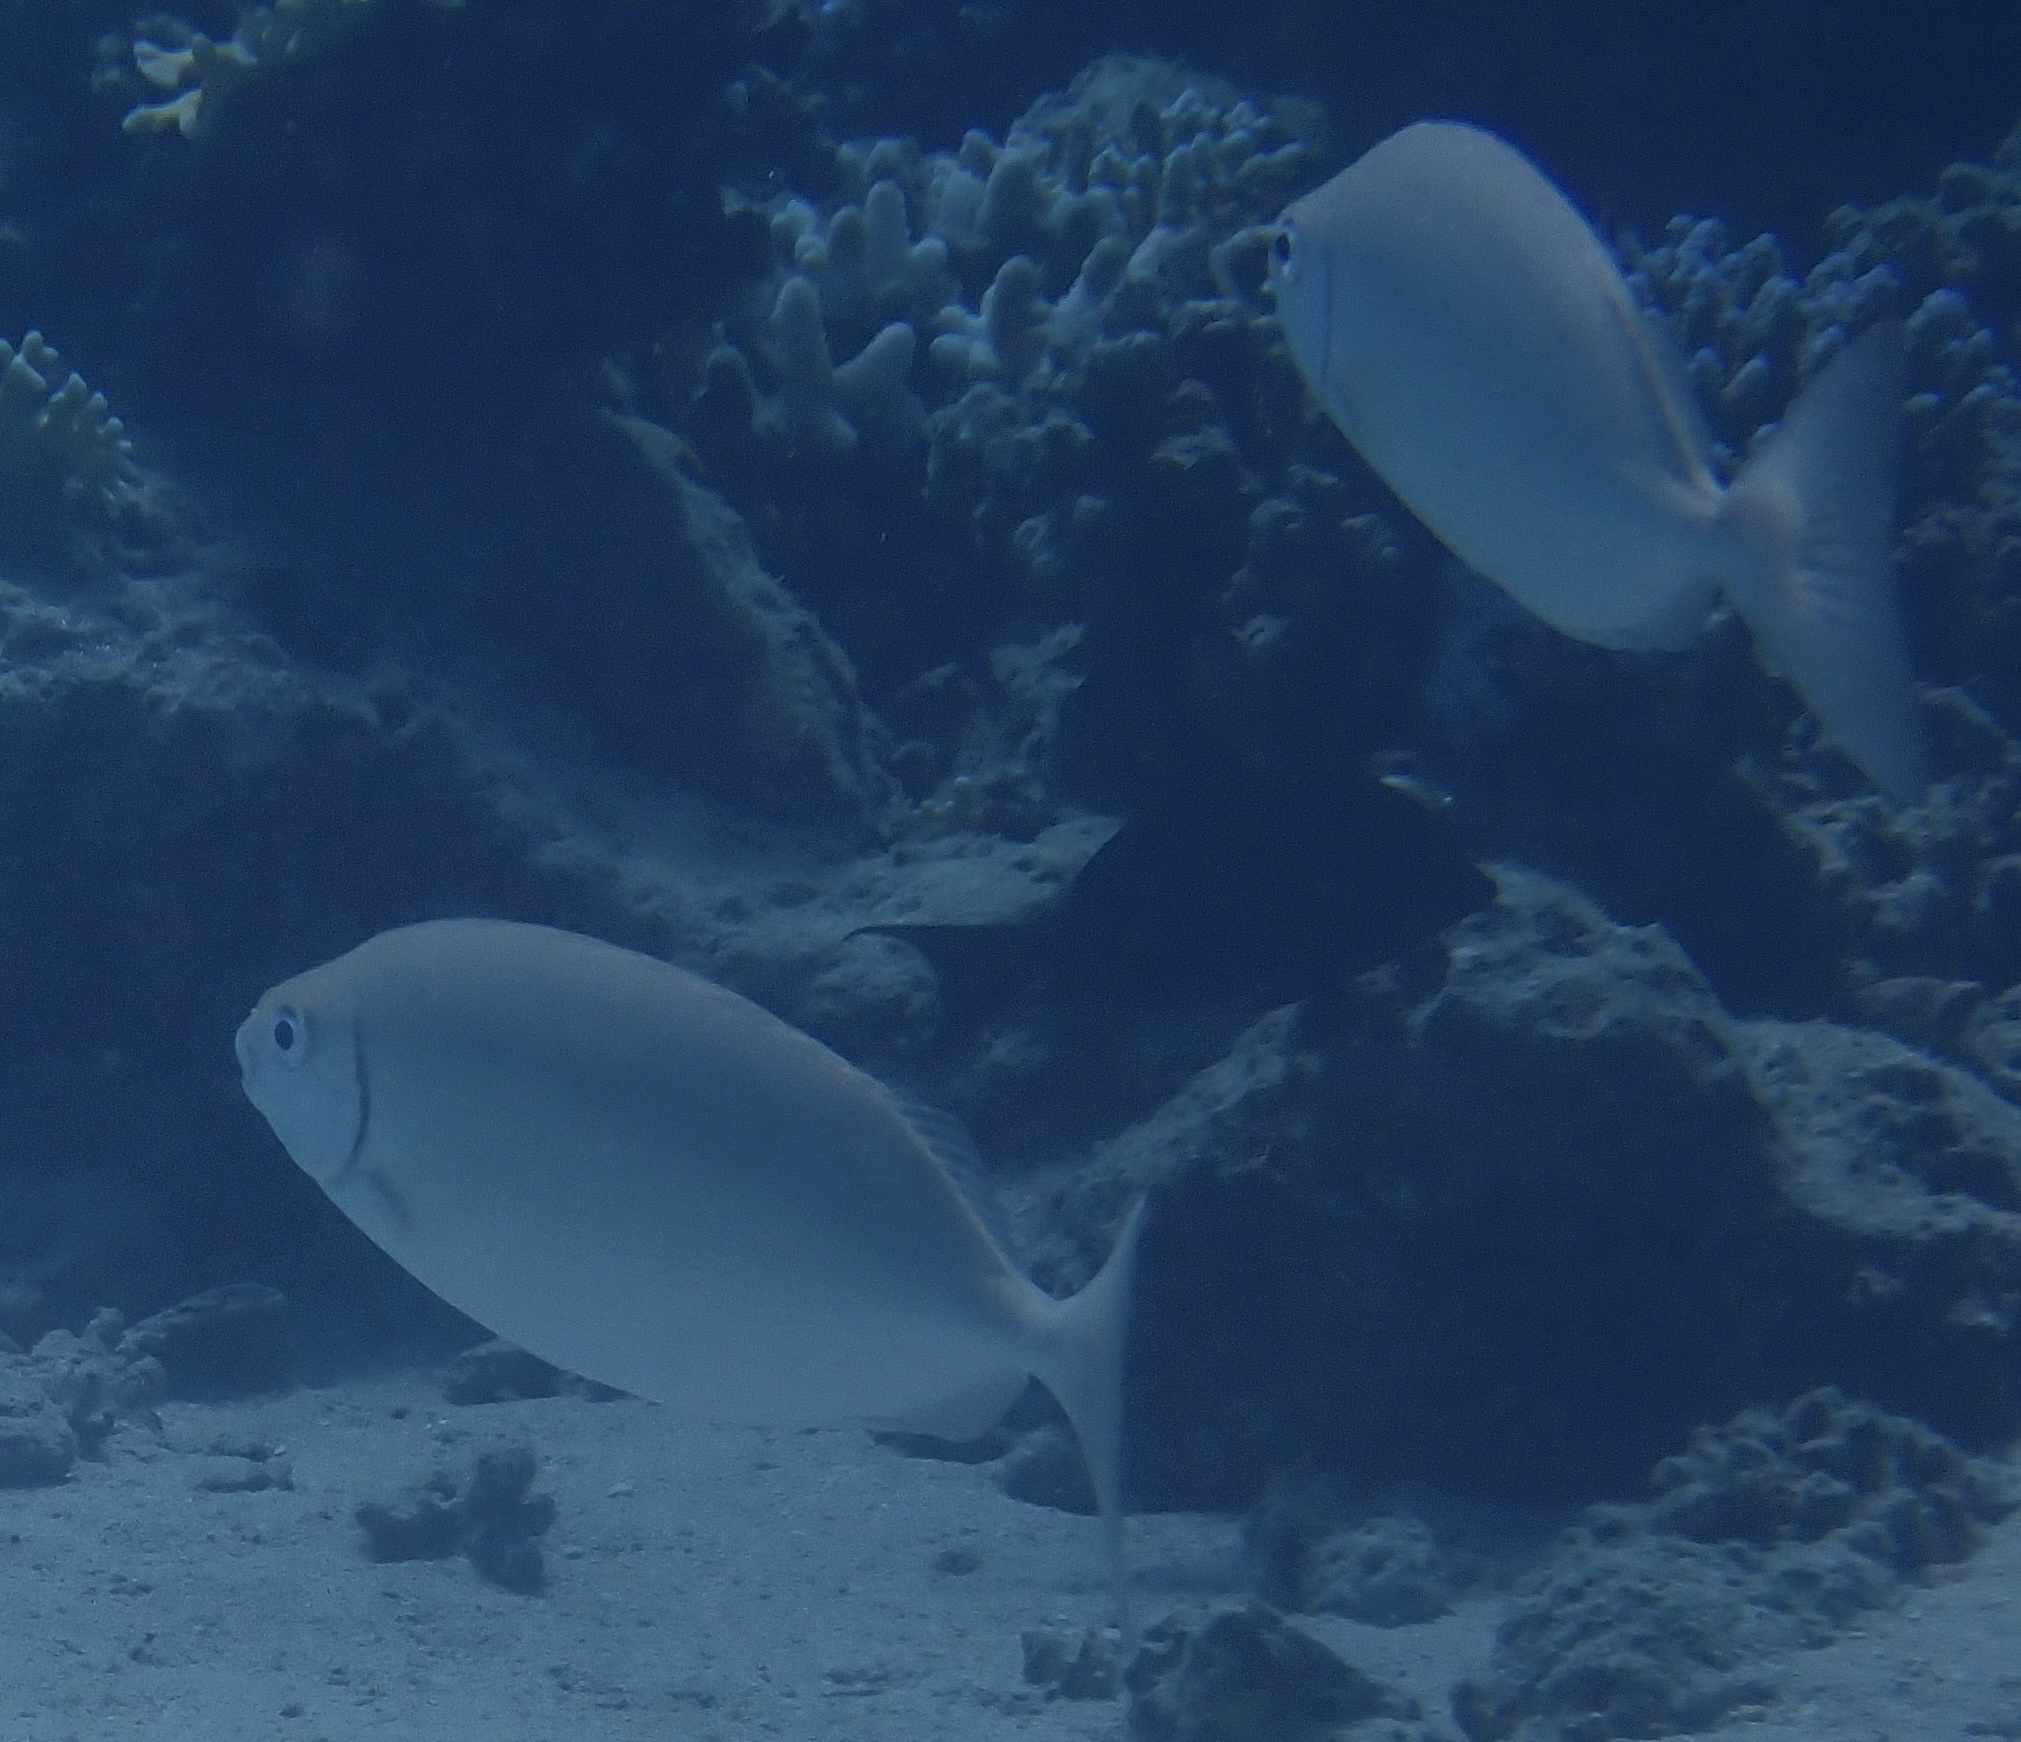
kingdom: Animalia
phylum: Chordata
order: Perciformes
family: Siganidae
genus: Siganus
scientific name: Siganus rivulatus
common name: Marbled spinefoot
